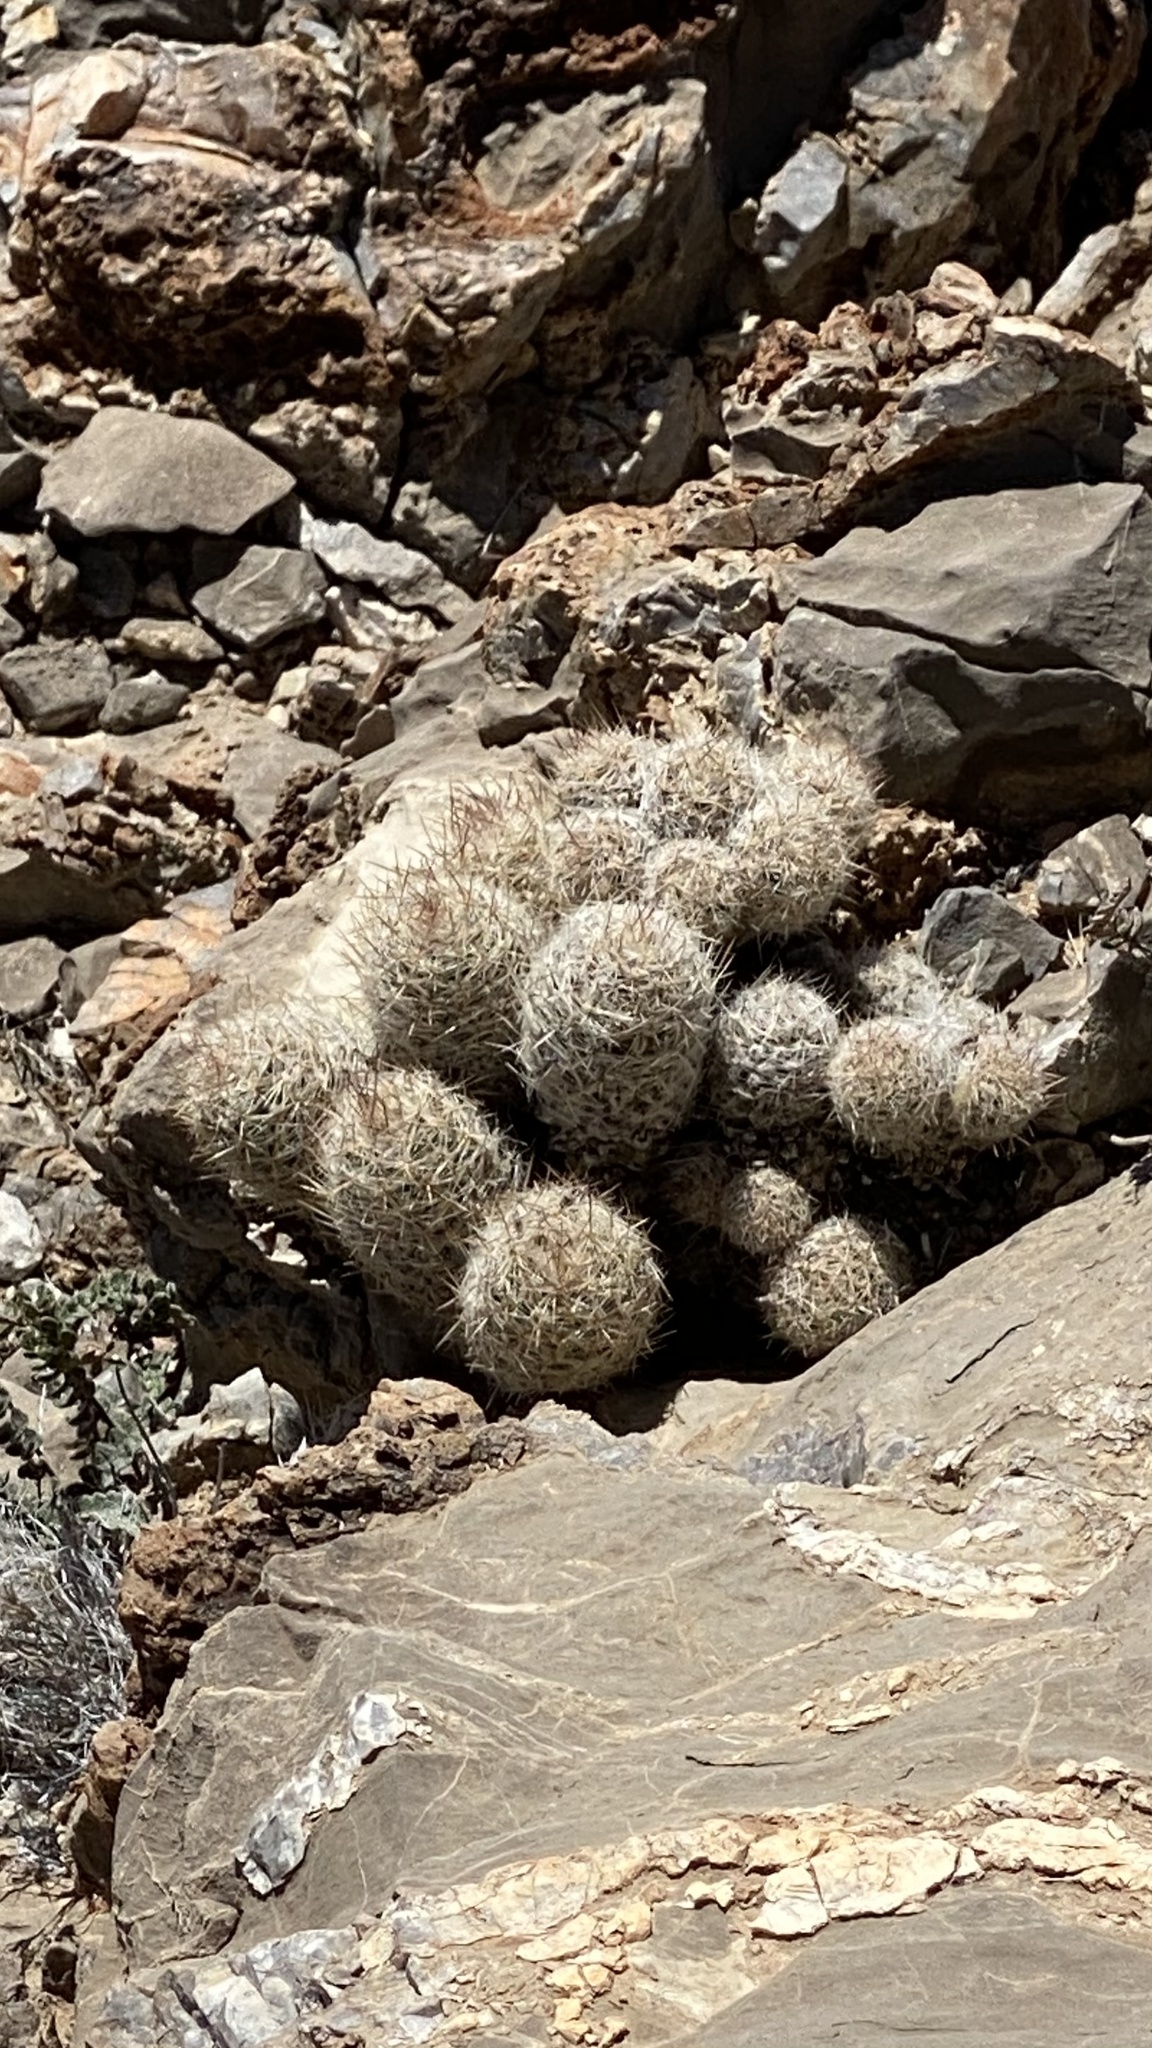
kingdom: Plantae
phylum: Tracheophyta
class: Magnoliopsida
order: Caryophyllales
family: Cactaceae
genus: Pelecyphora
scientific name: Pelecyphora tuberculosa
